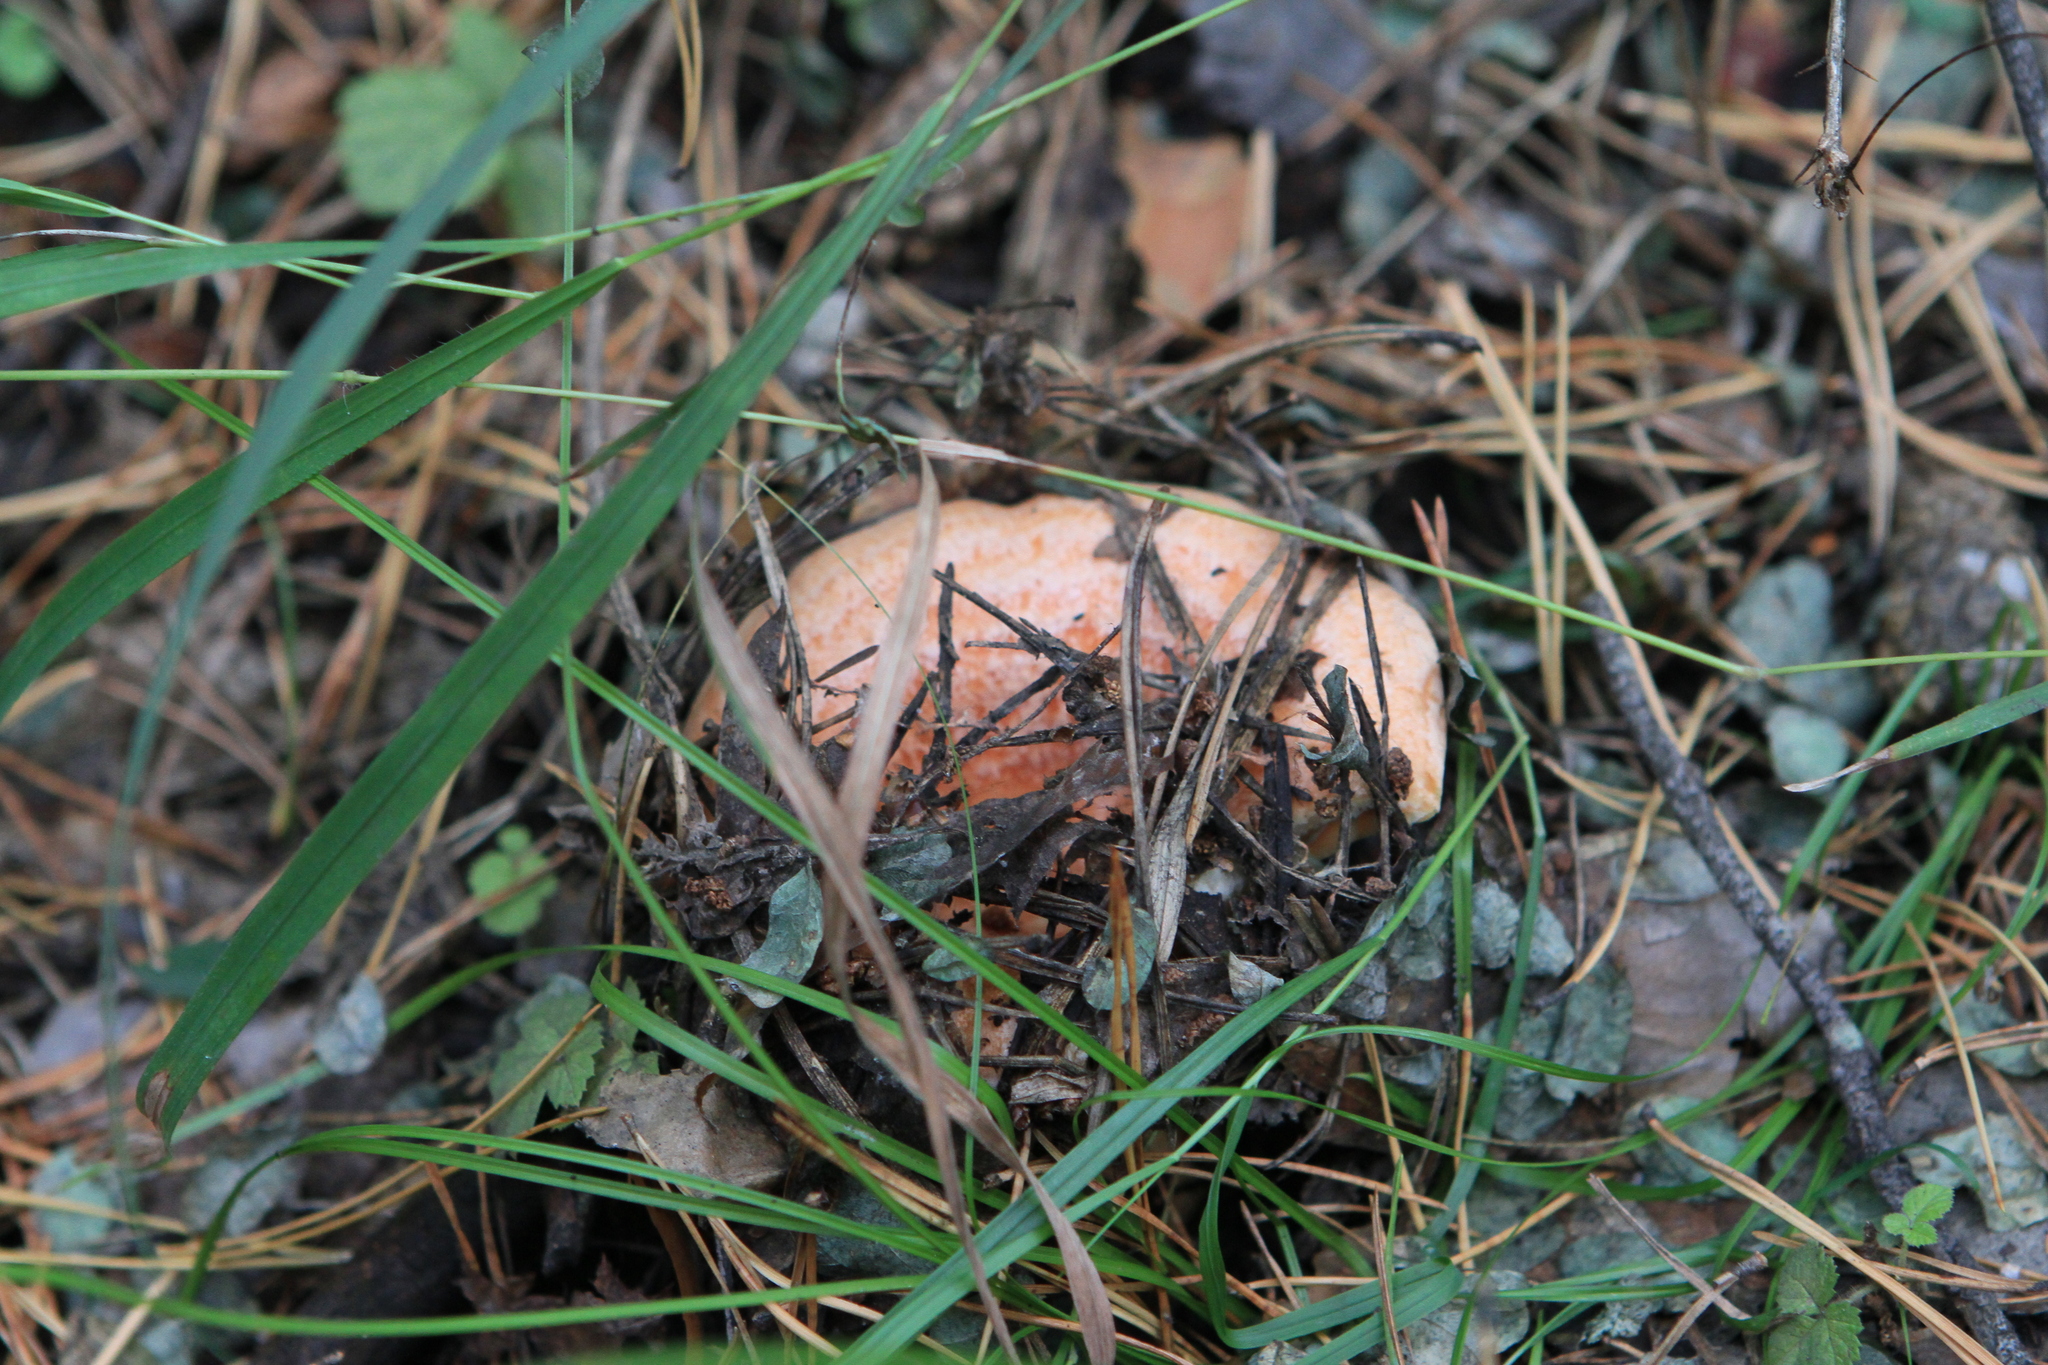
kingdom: Fungi
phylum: Basidiomycota
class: Agaricomycetes
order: Russulales
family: Russulaceae
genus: Lactarius
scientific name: Lactarius deliciosus
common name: Saffron milk-cap
